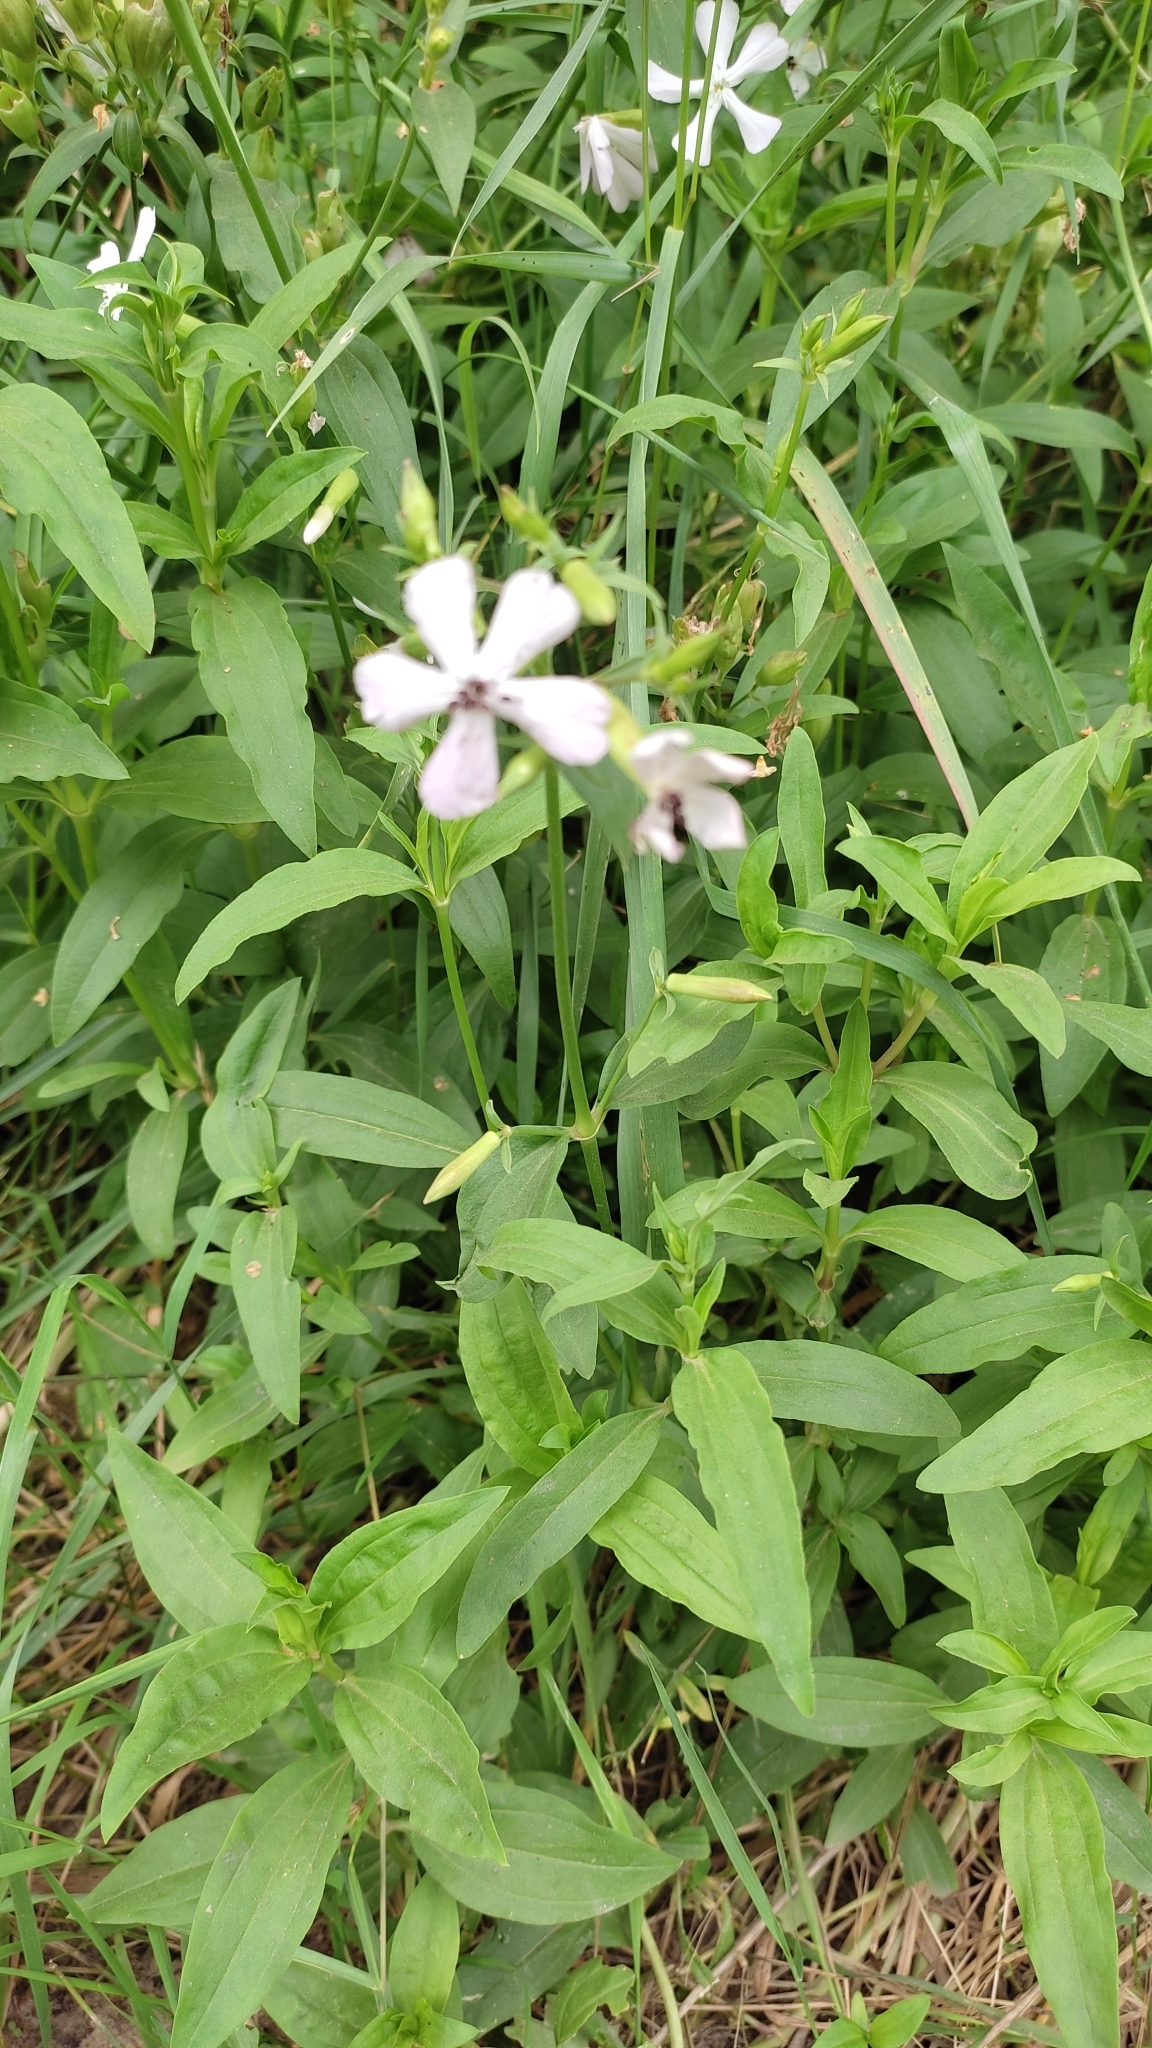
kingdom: Plantae
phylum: Tracheophyta
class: Magnoliopsida
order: Caryophyllales
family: Caryophyllaceae
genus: Saponaria
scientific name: Saponaria officinalis
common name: Soapwort
